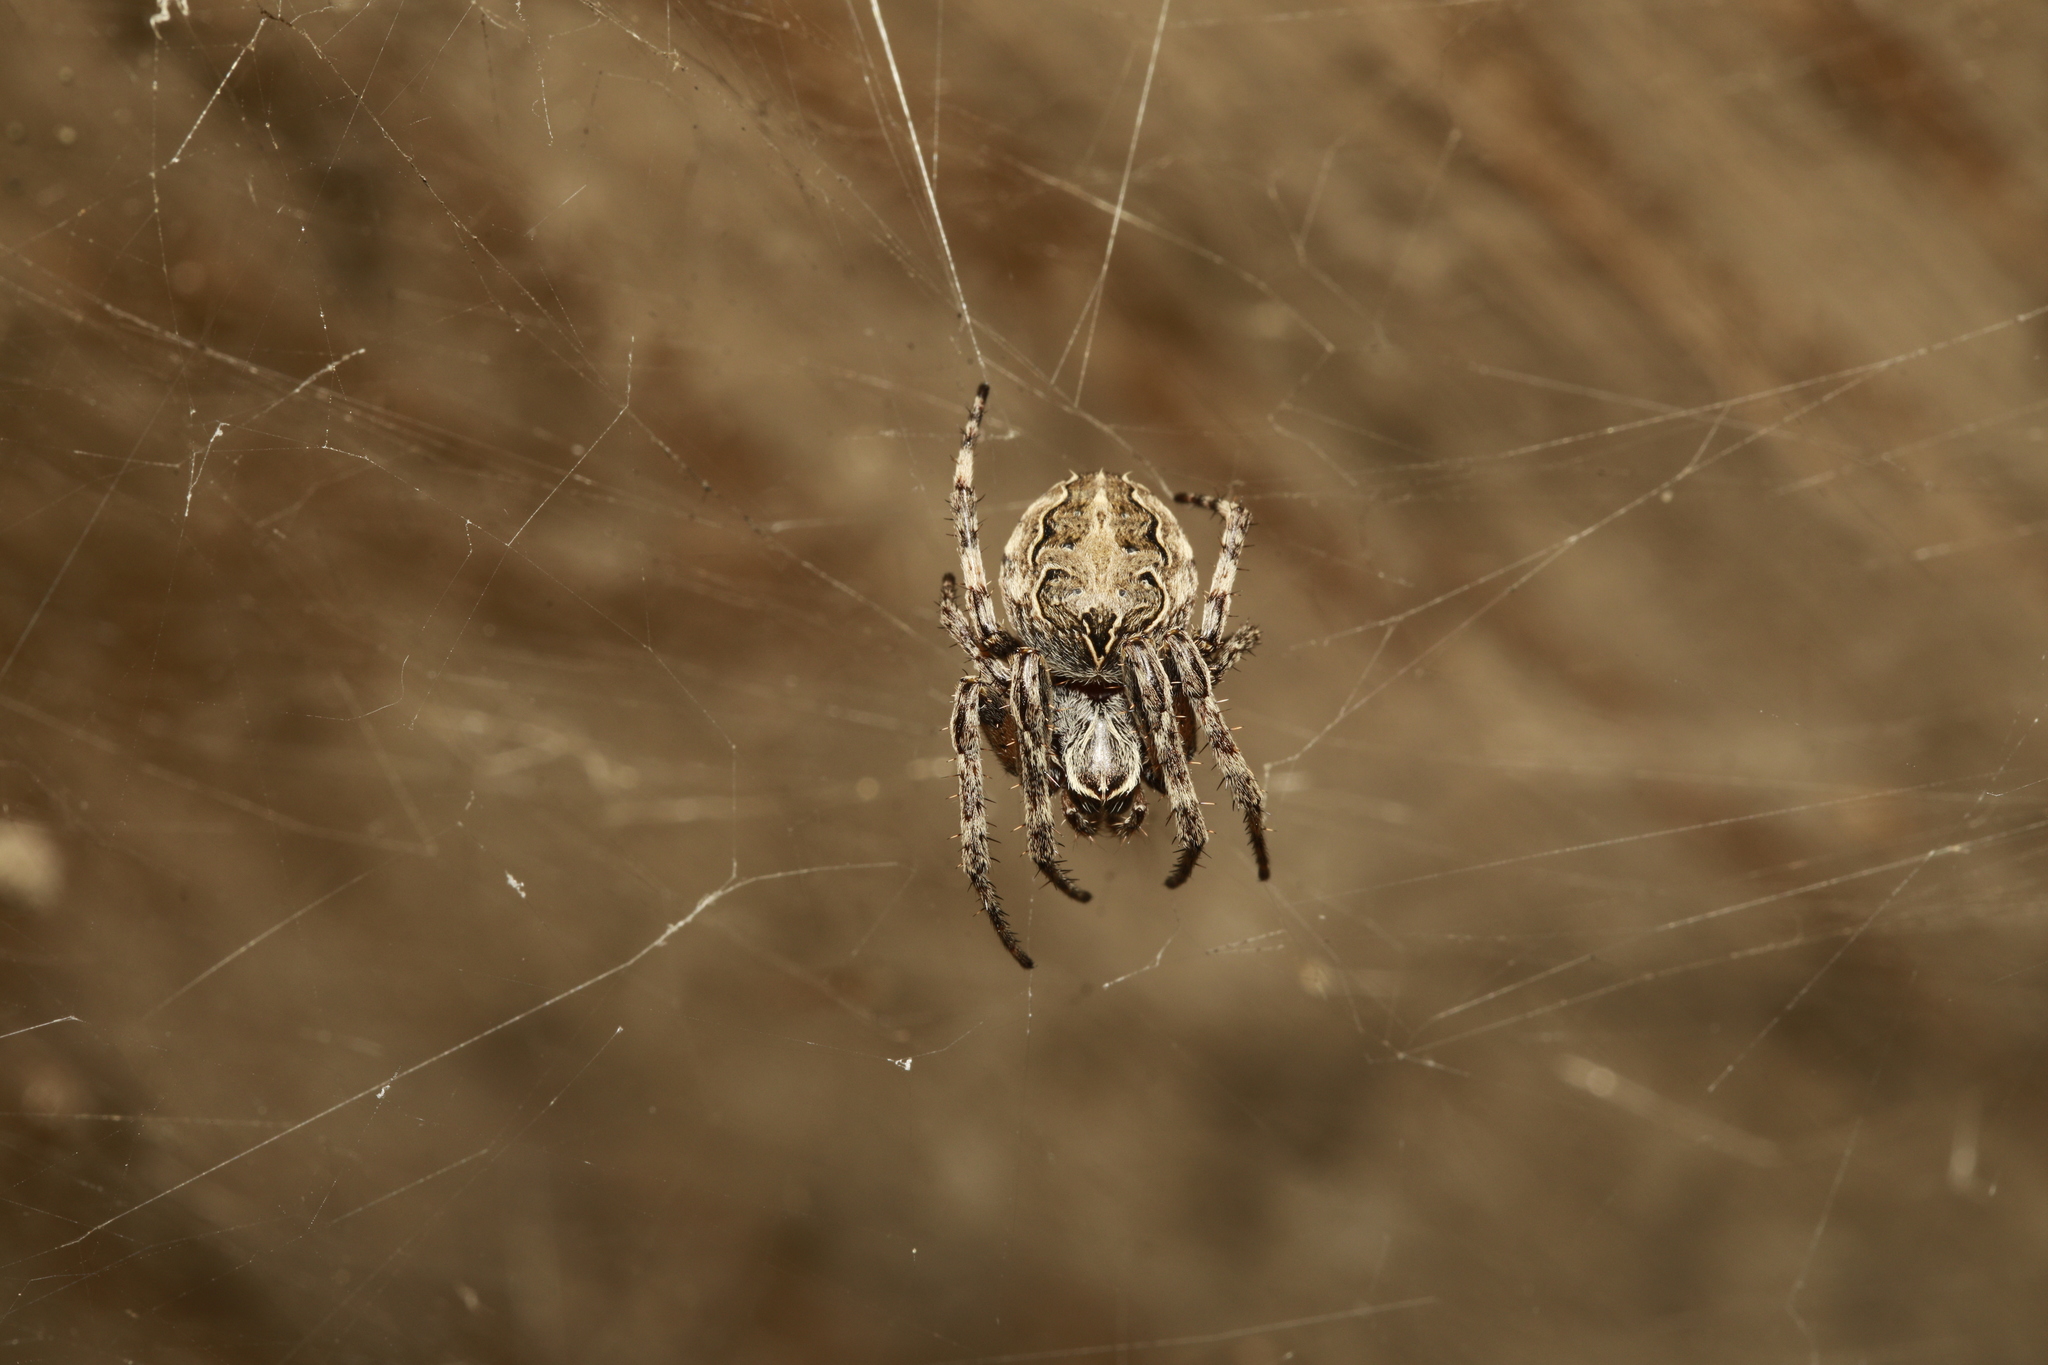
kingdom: Animalia
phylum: Arthropoda
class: Arachnida
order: Araneae
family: Araneidae
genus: Larinioides
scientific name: Larinioides sclopetarius
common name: Bridge orbweaver
